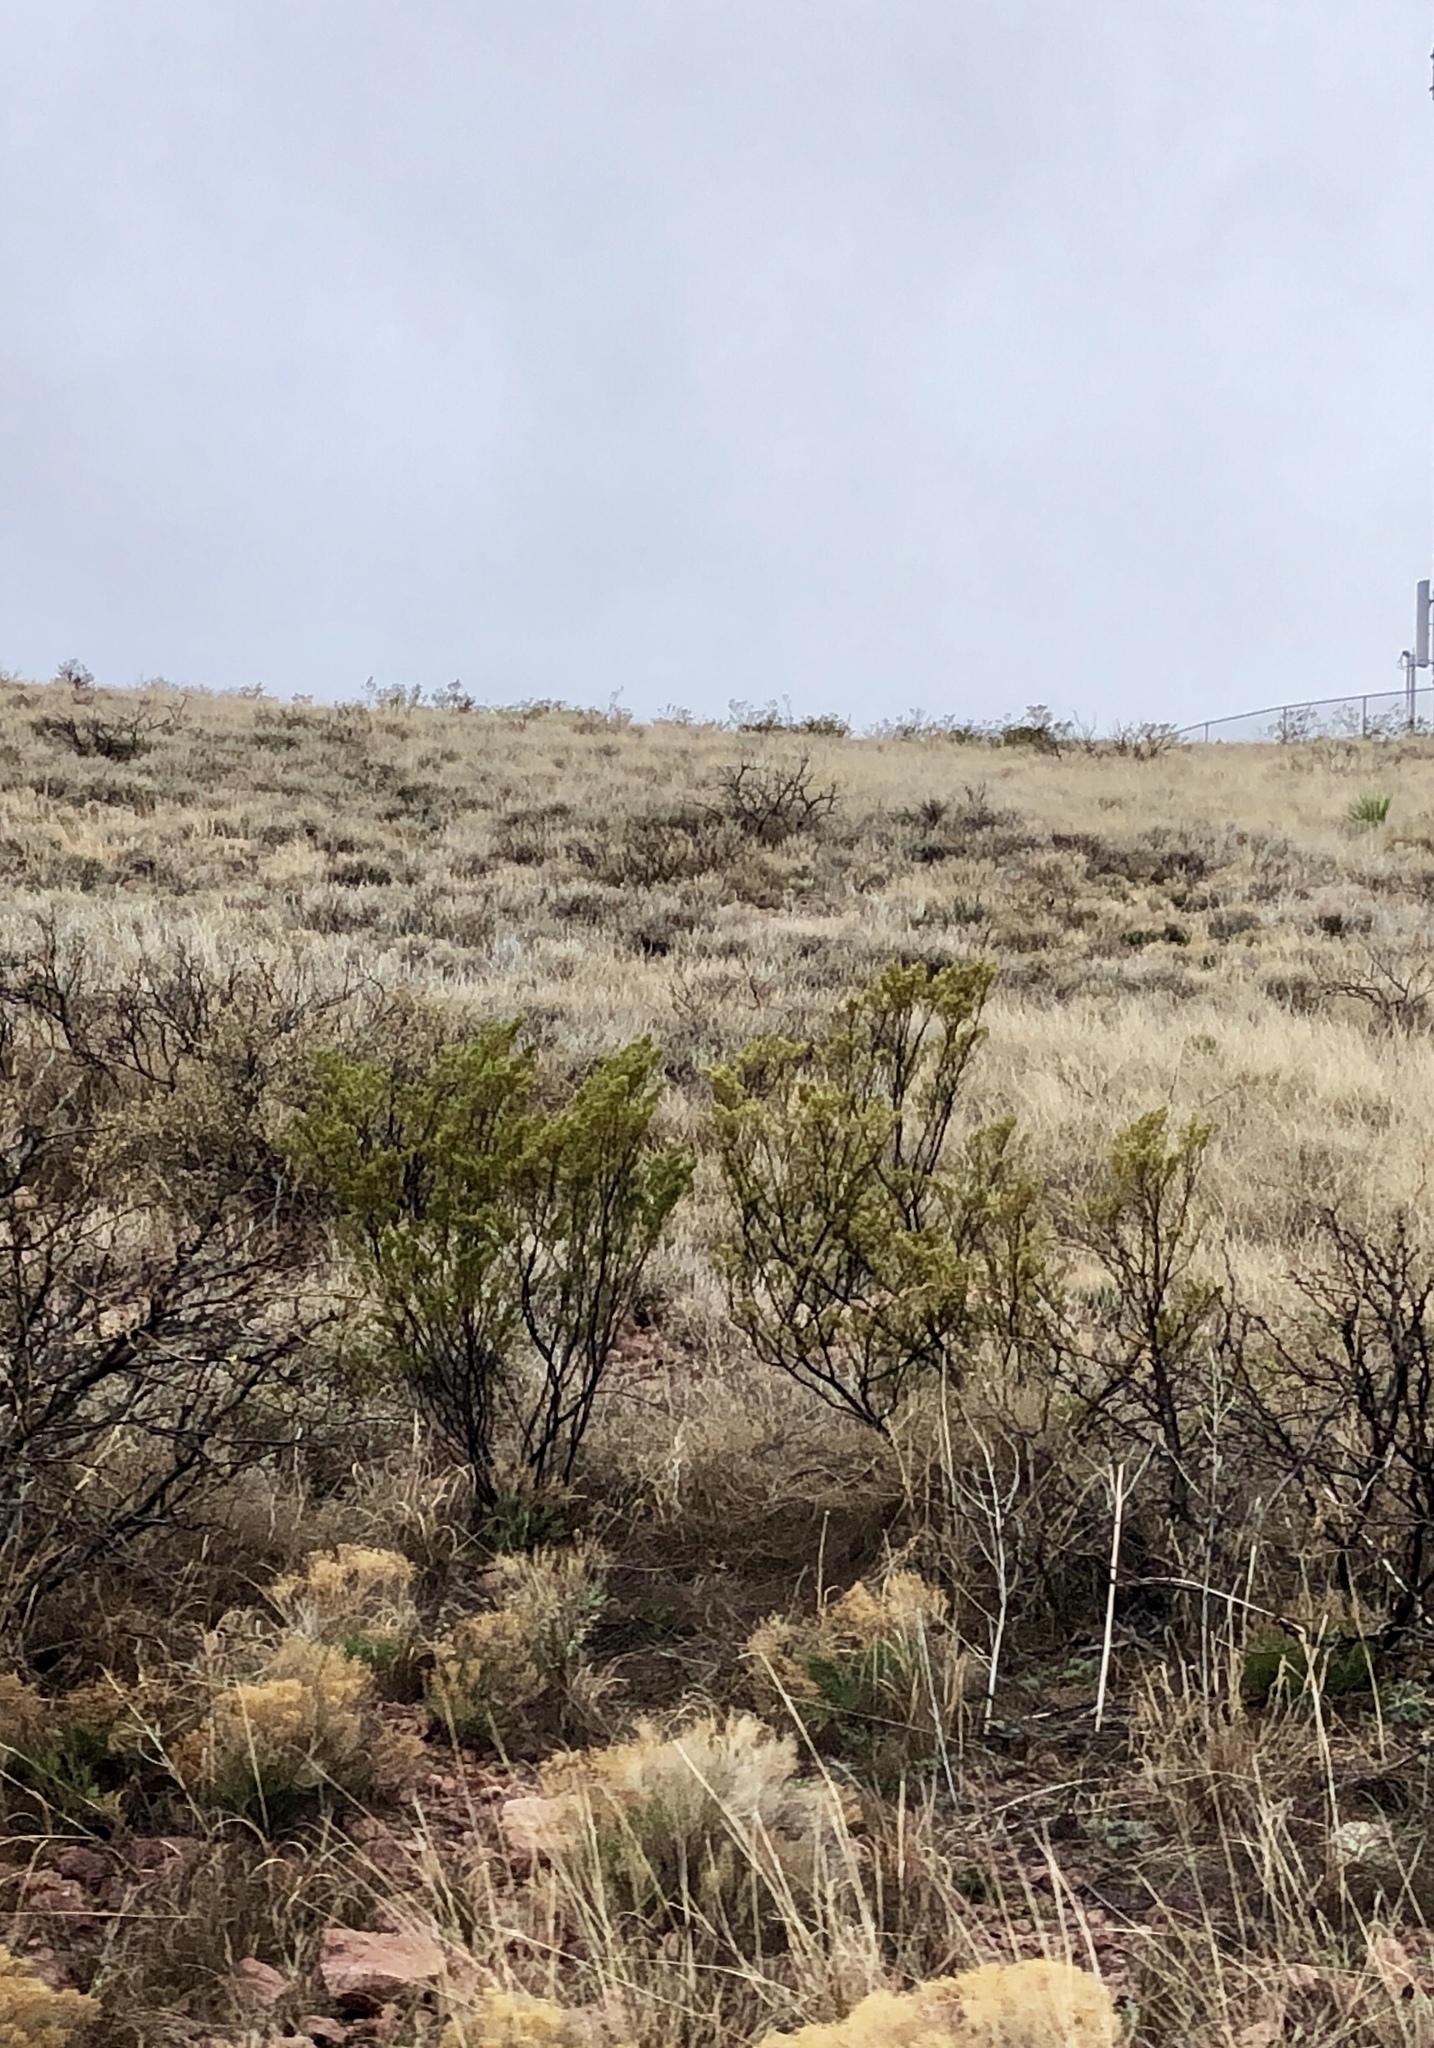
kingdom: Plantae
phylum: Tracheophyta
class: Magnoliopsida
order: Zygophyllales
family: Zygophyllaceae
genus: Larrea
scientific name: Larrea tridentata
